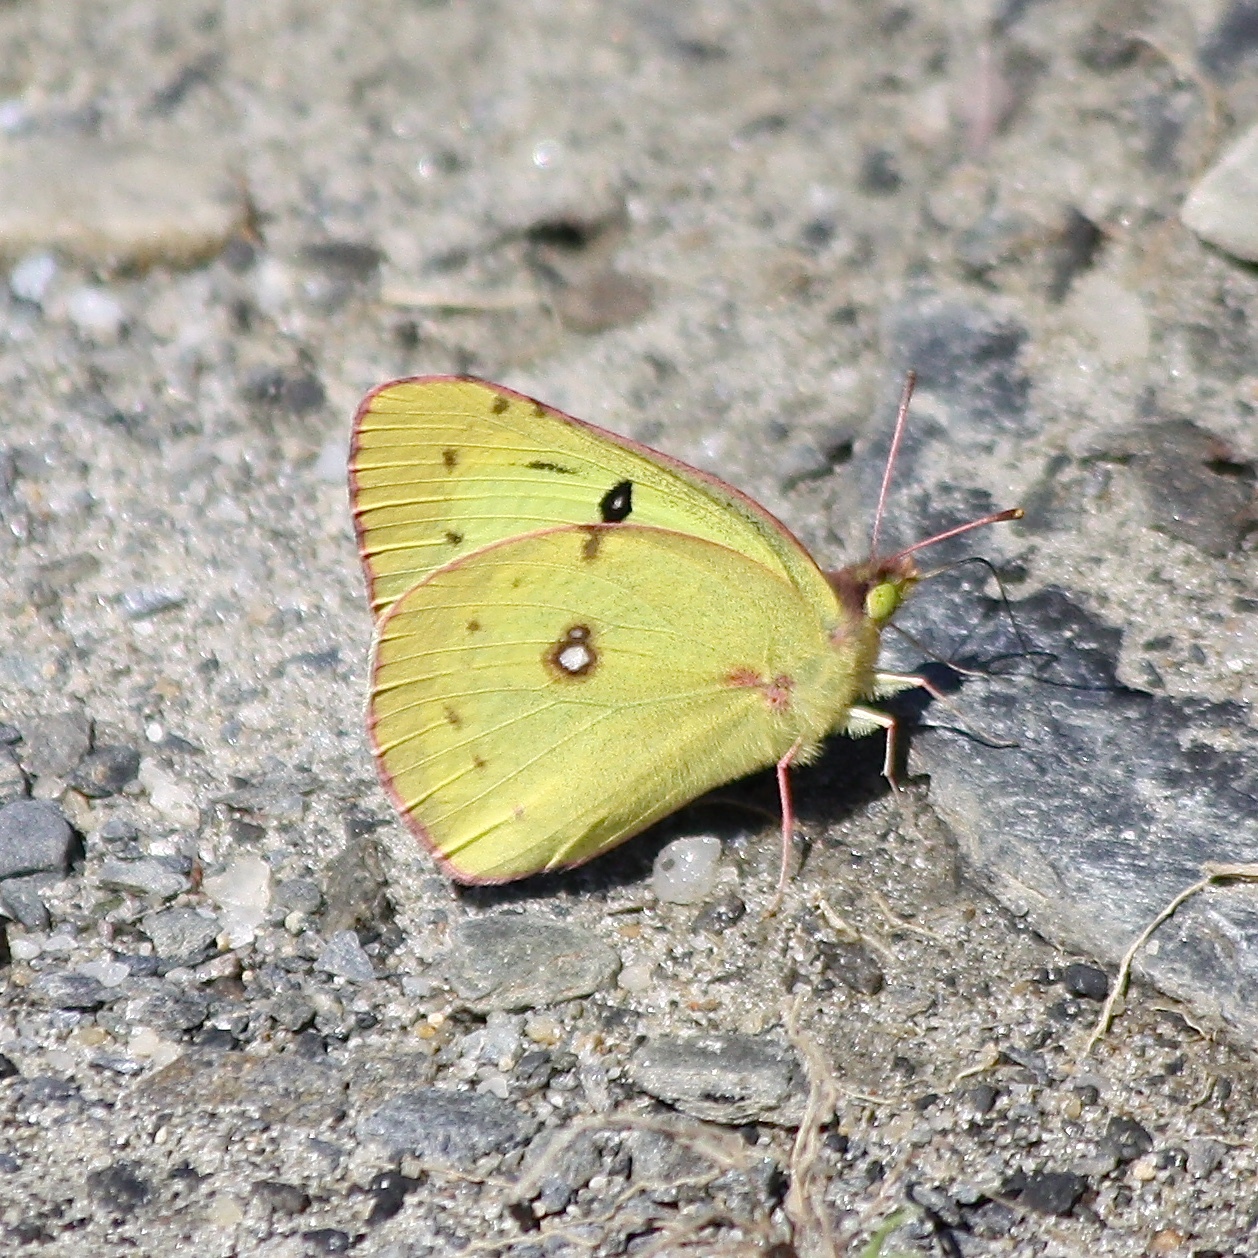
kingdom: Animalia
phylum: Arthropoda
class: Insecta
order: Lepidoptera
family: Pieridae
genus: Colias
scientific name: Colias eurytheme
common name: Alfalfa butterfly
